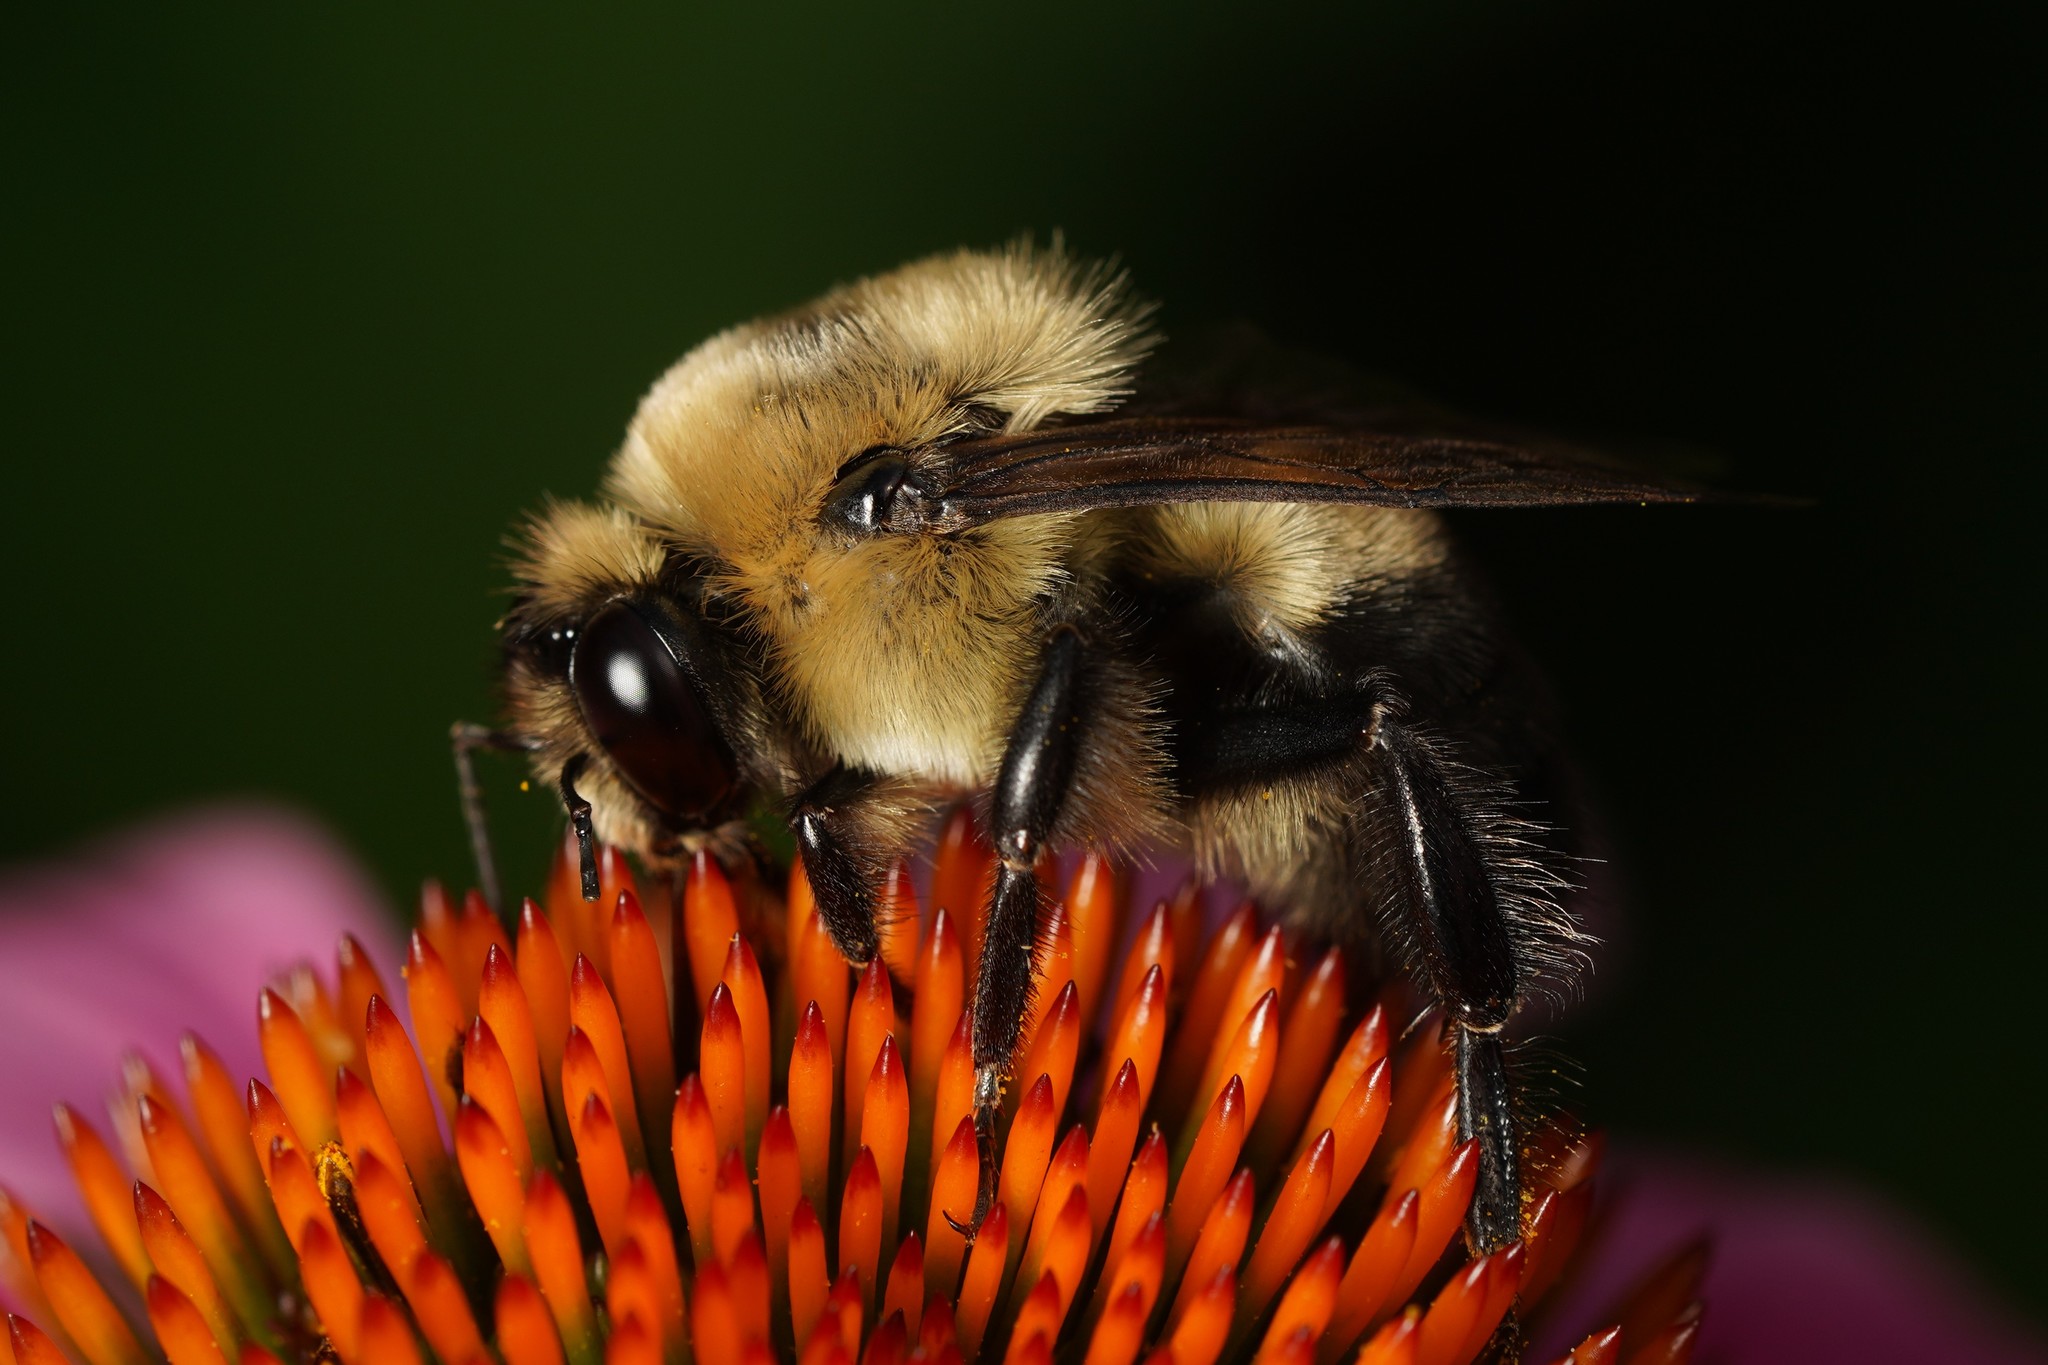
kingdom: Animalia
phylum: Arthropoda
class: Insecta
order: Hymenoptera
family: Apidae
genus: Bombus
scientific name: Bombus griseocollis
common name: Brown-belted bumble bee
